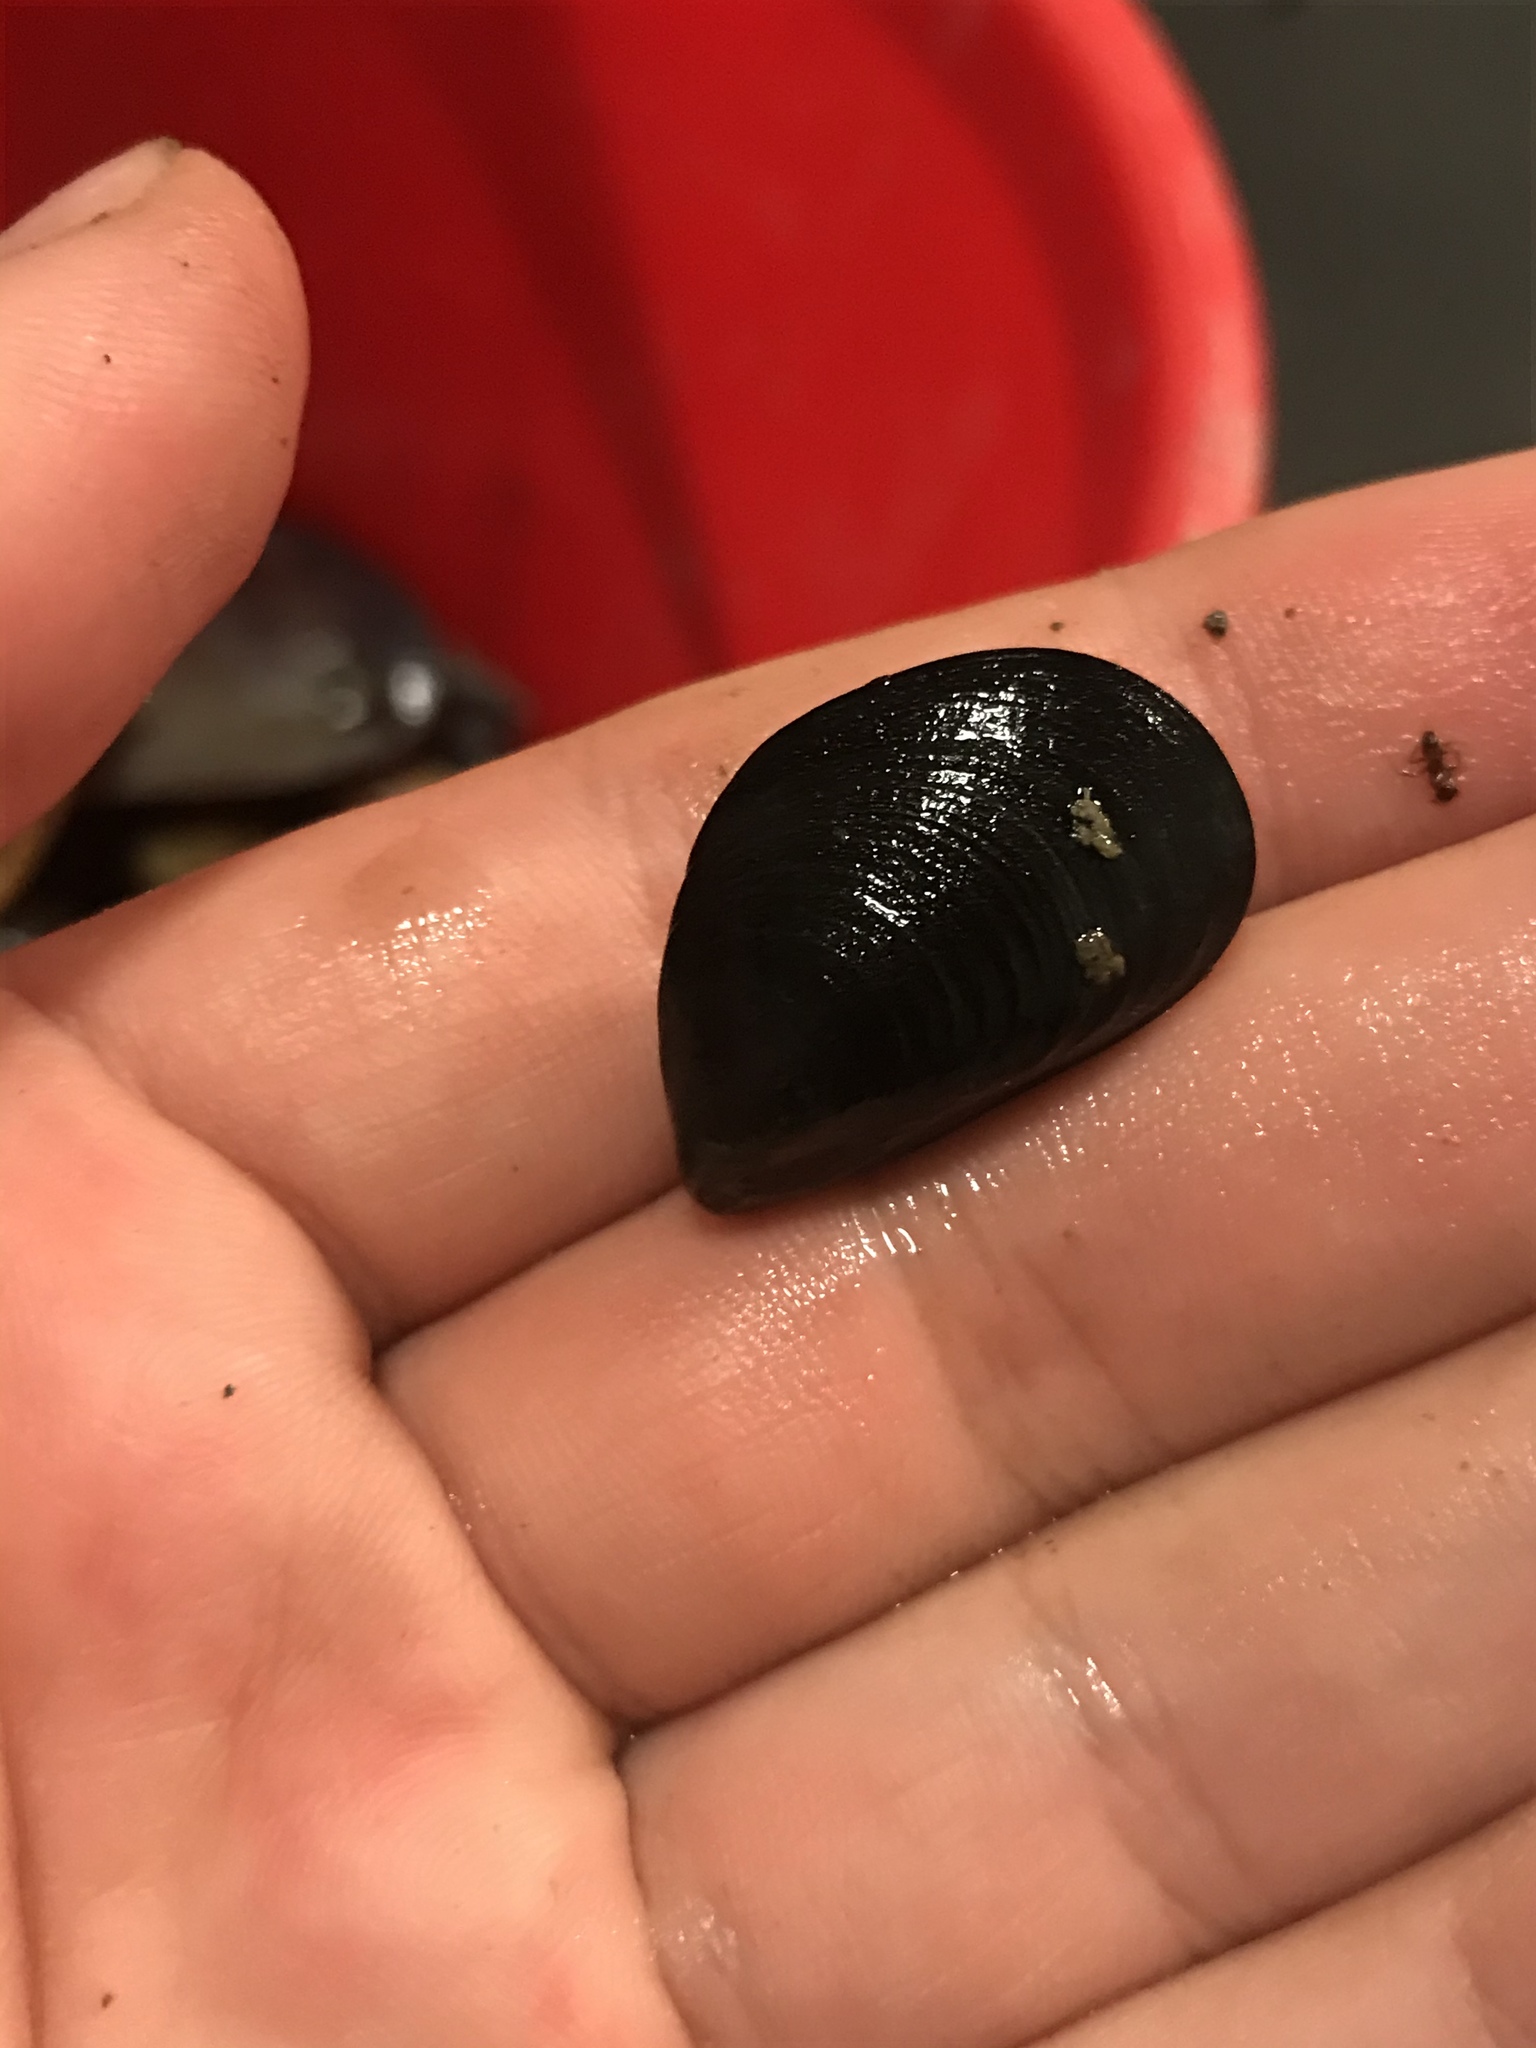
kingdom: Animalia
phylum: Mollusca
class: Bivalvia
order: Mytilida
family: Mytilidae
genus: Mytilus
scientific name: Mytilus
